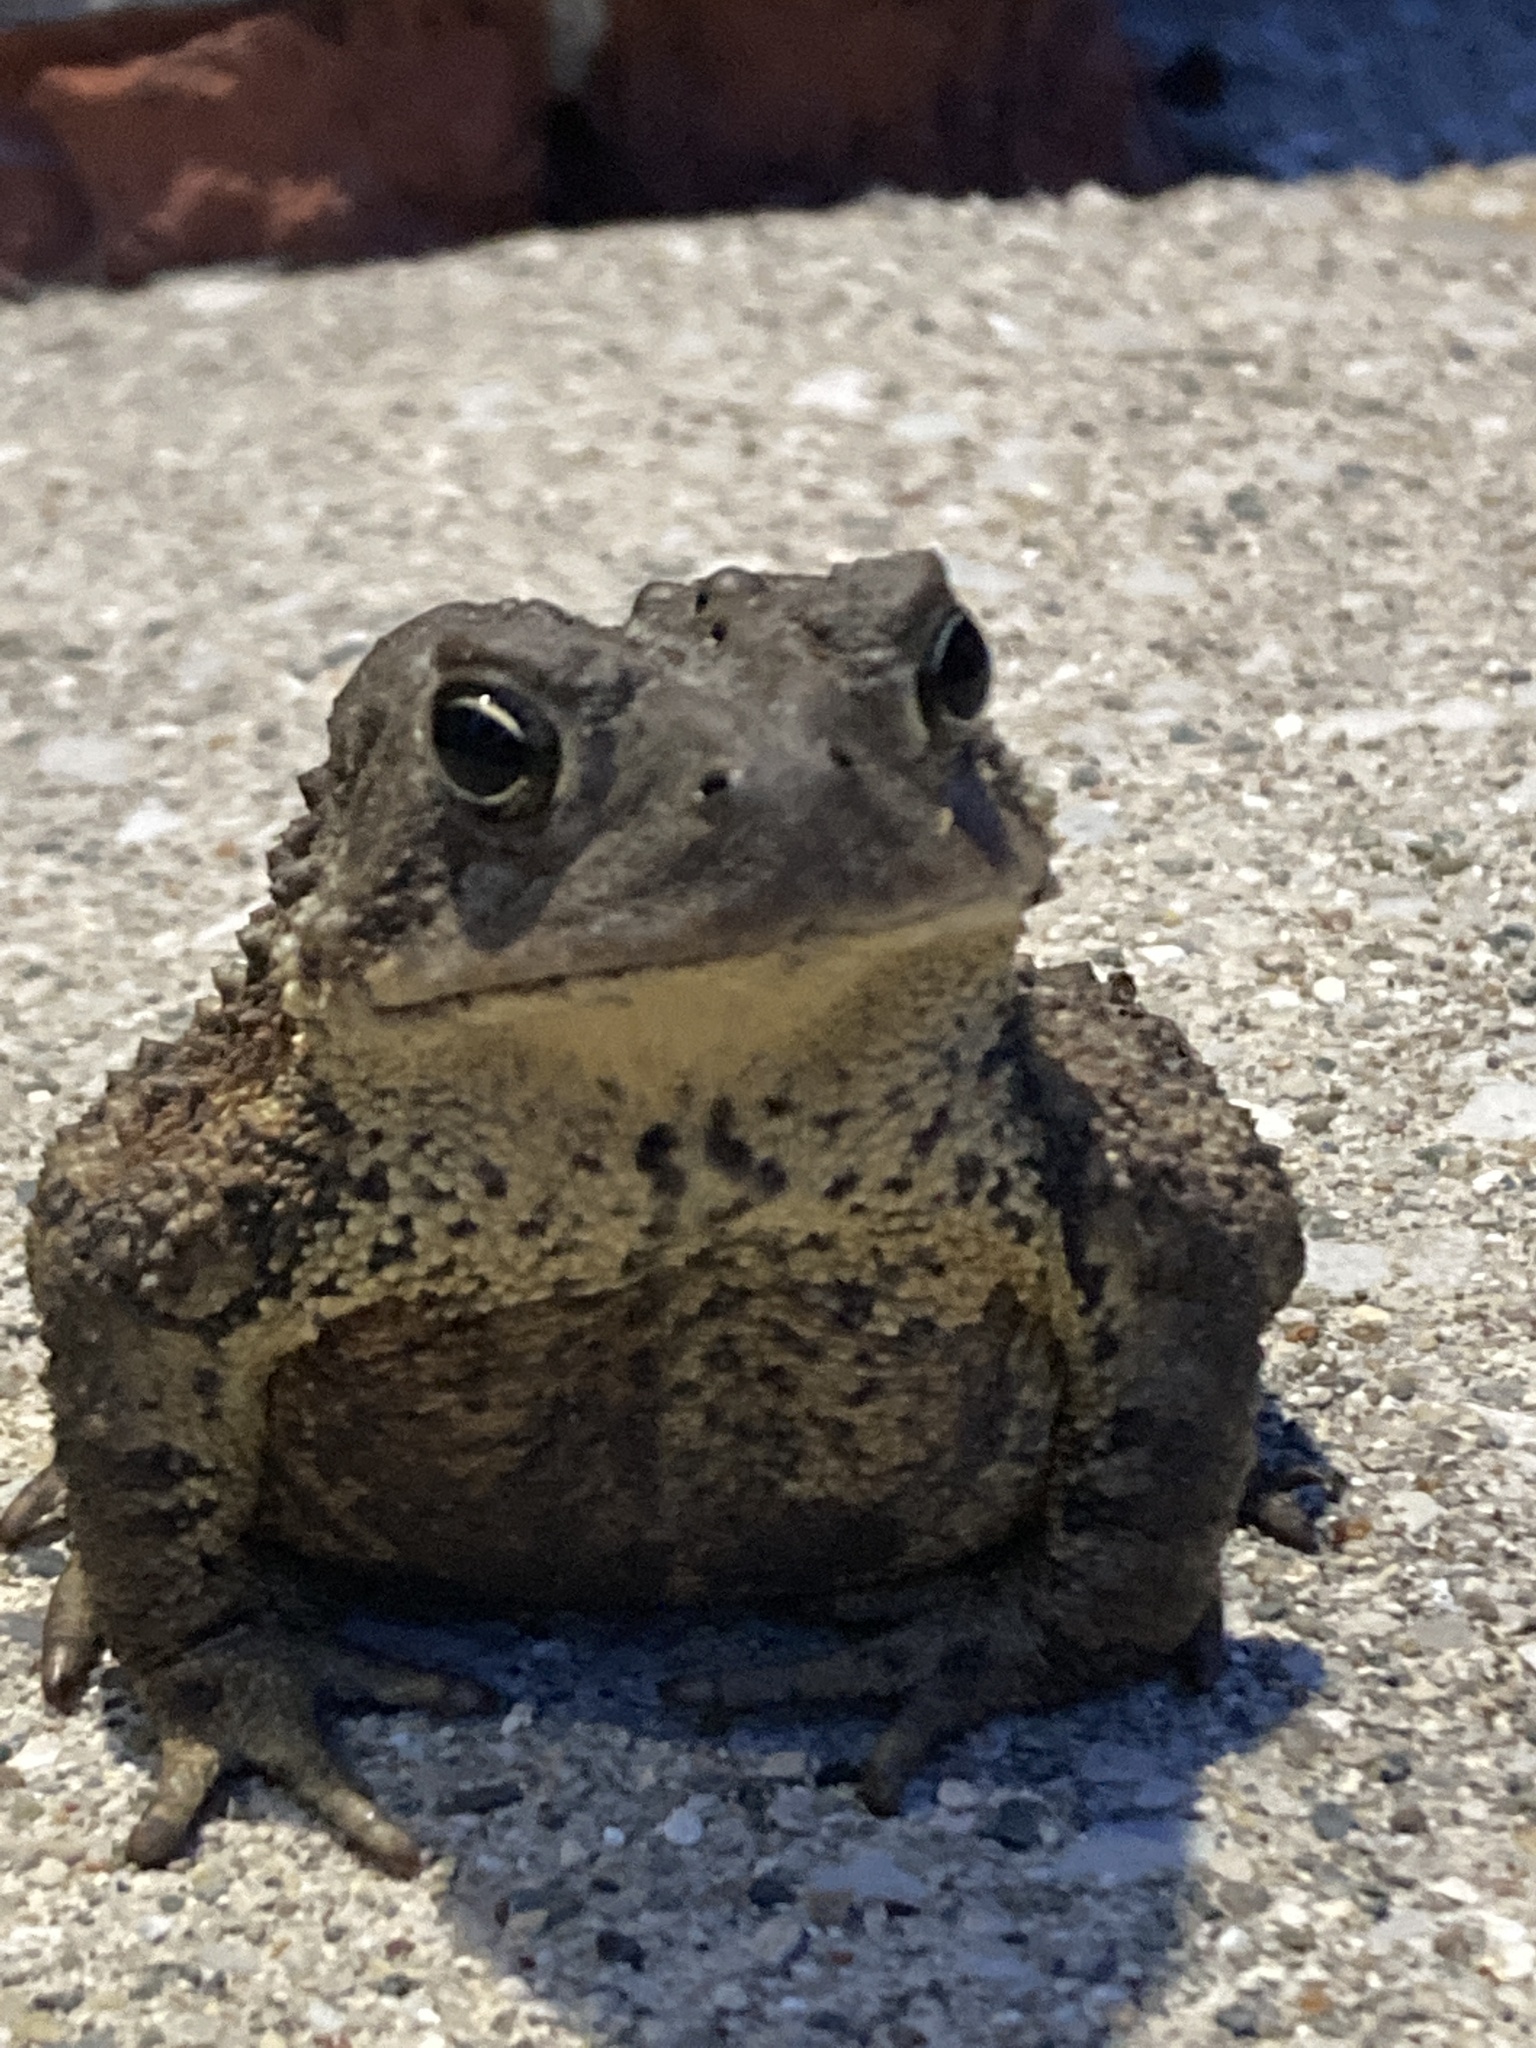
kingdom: Animalia
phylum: Chordata
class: Amphibia
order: Anura
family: Bufonidae
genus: Anaxyrus
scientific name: Anaxyrus americanus
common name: American toad
